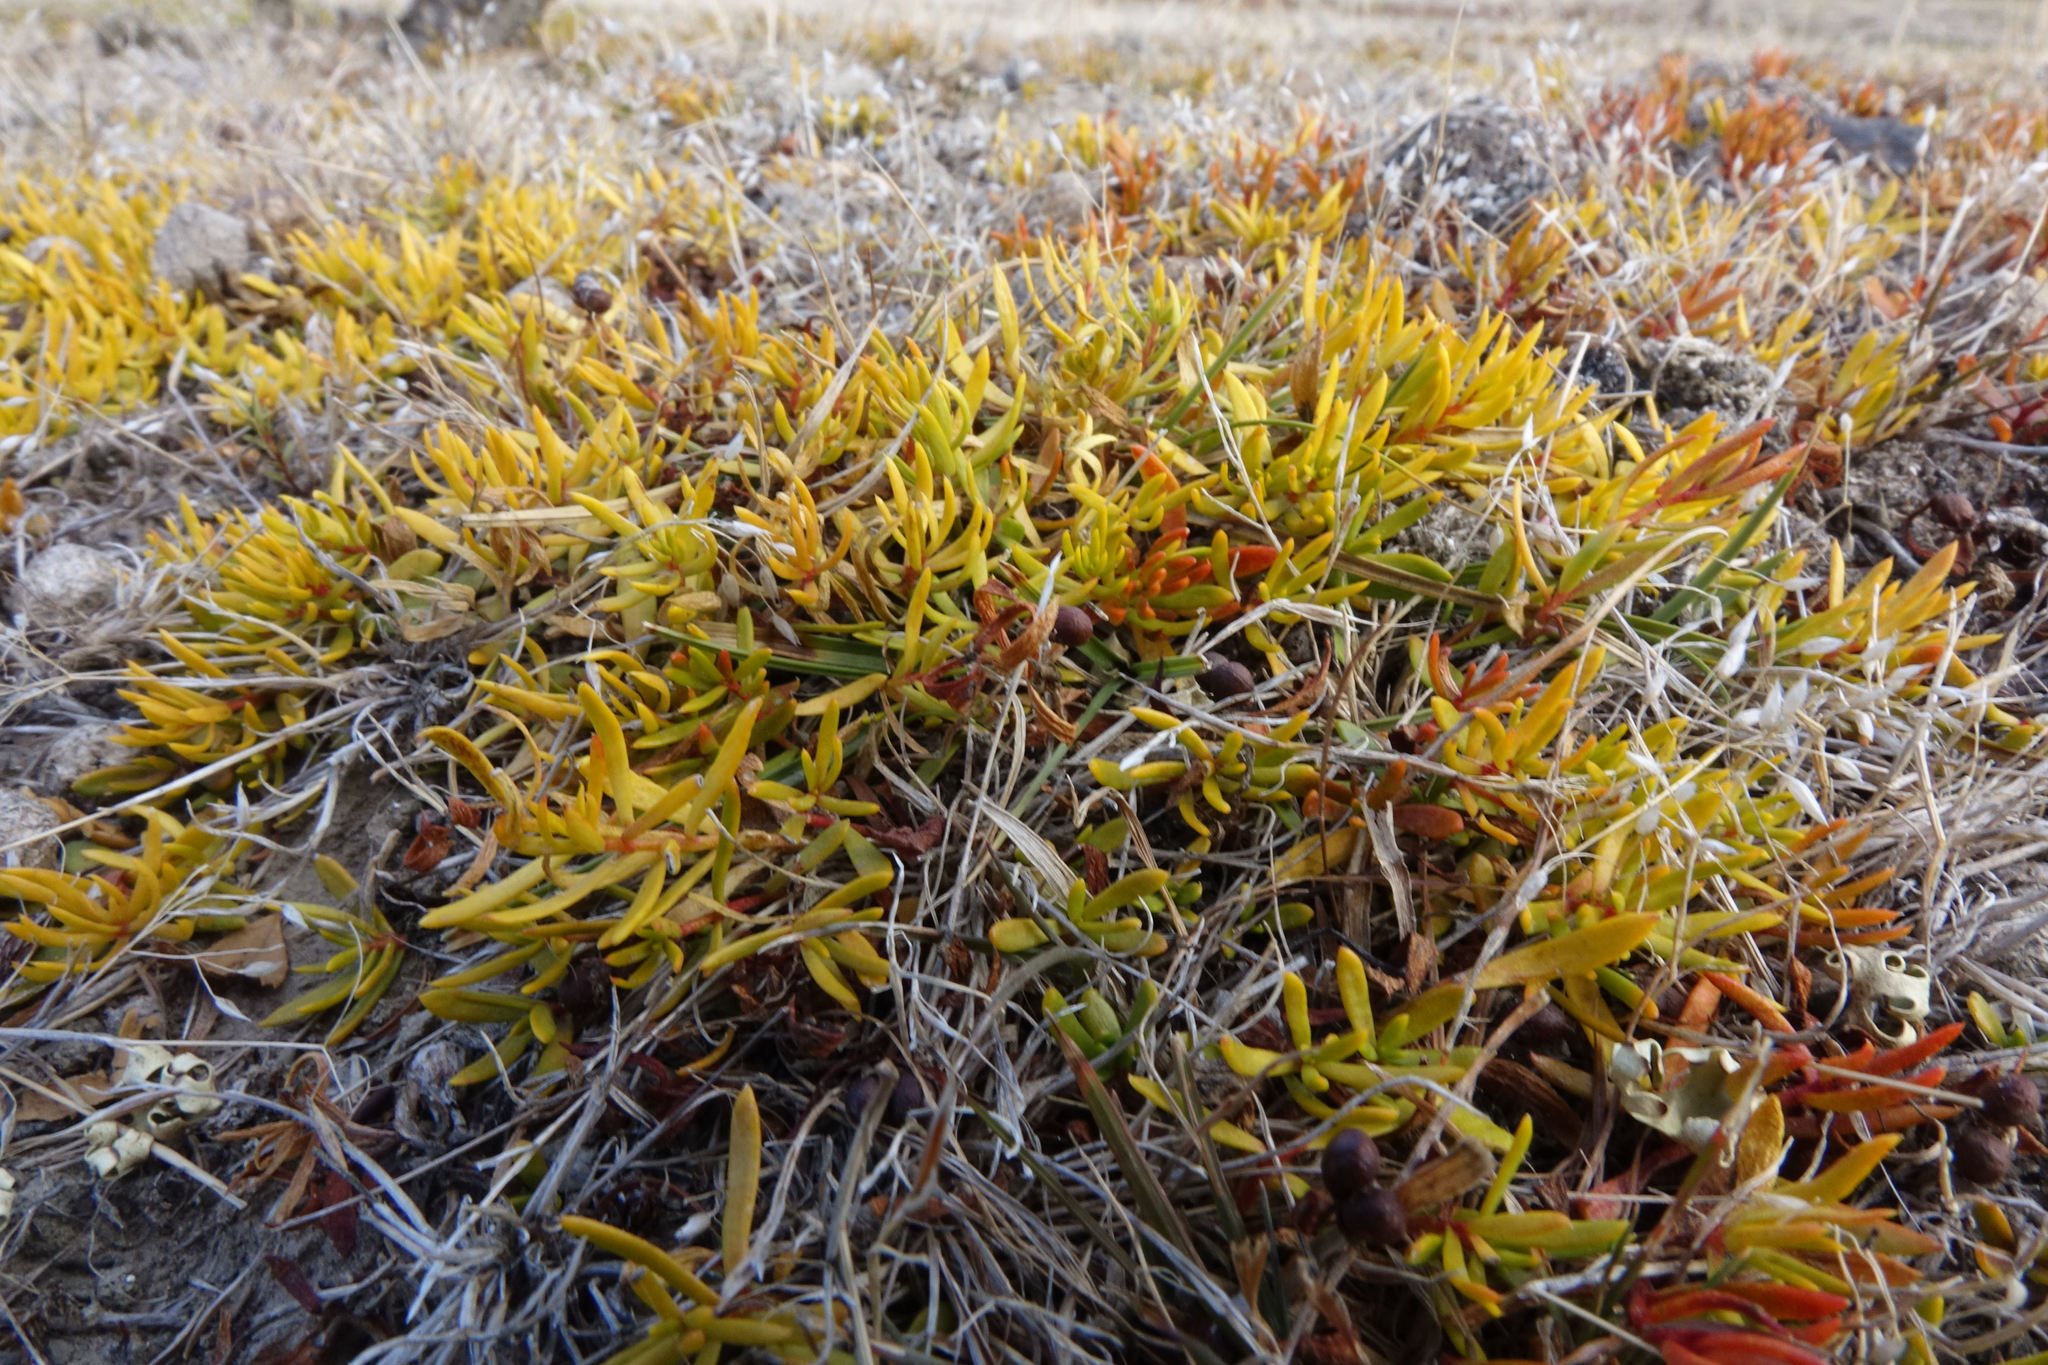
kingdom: Plantae
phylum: Tracheophyta
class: Magnoliopsida
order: Celastrales
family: Celastraceae
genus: Stackhousia
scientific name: Stackhousia minima
